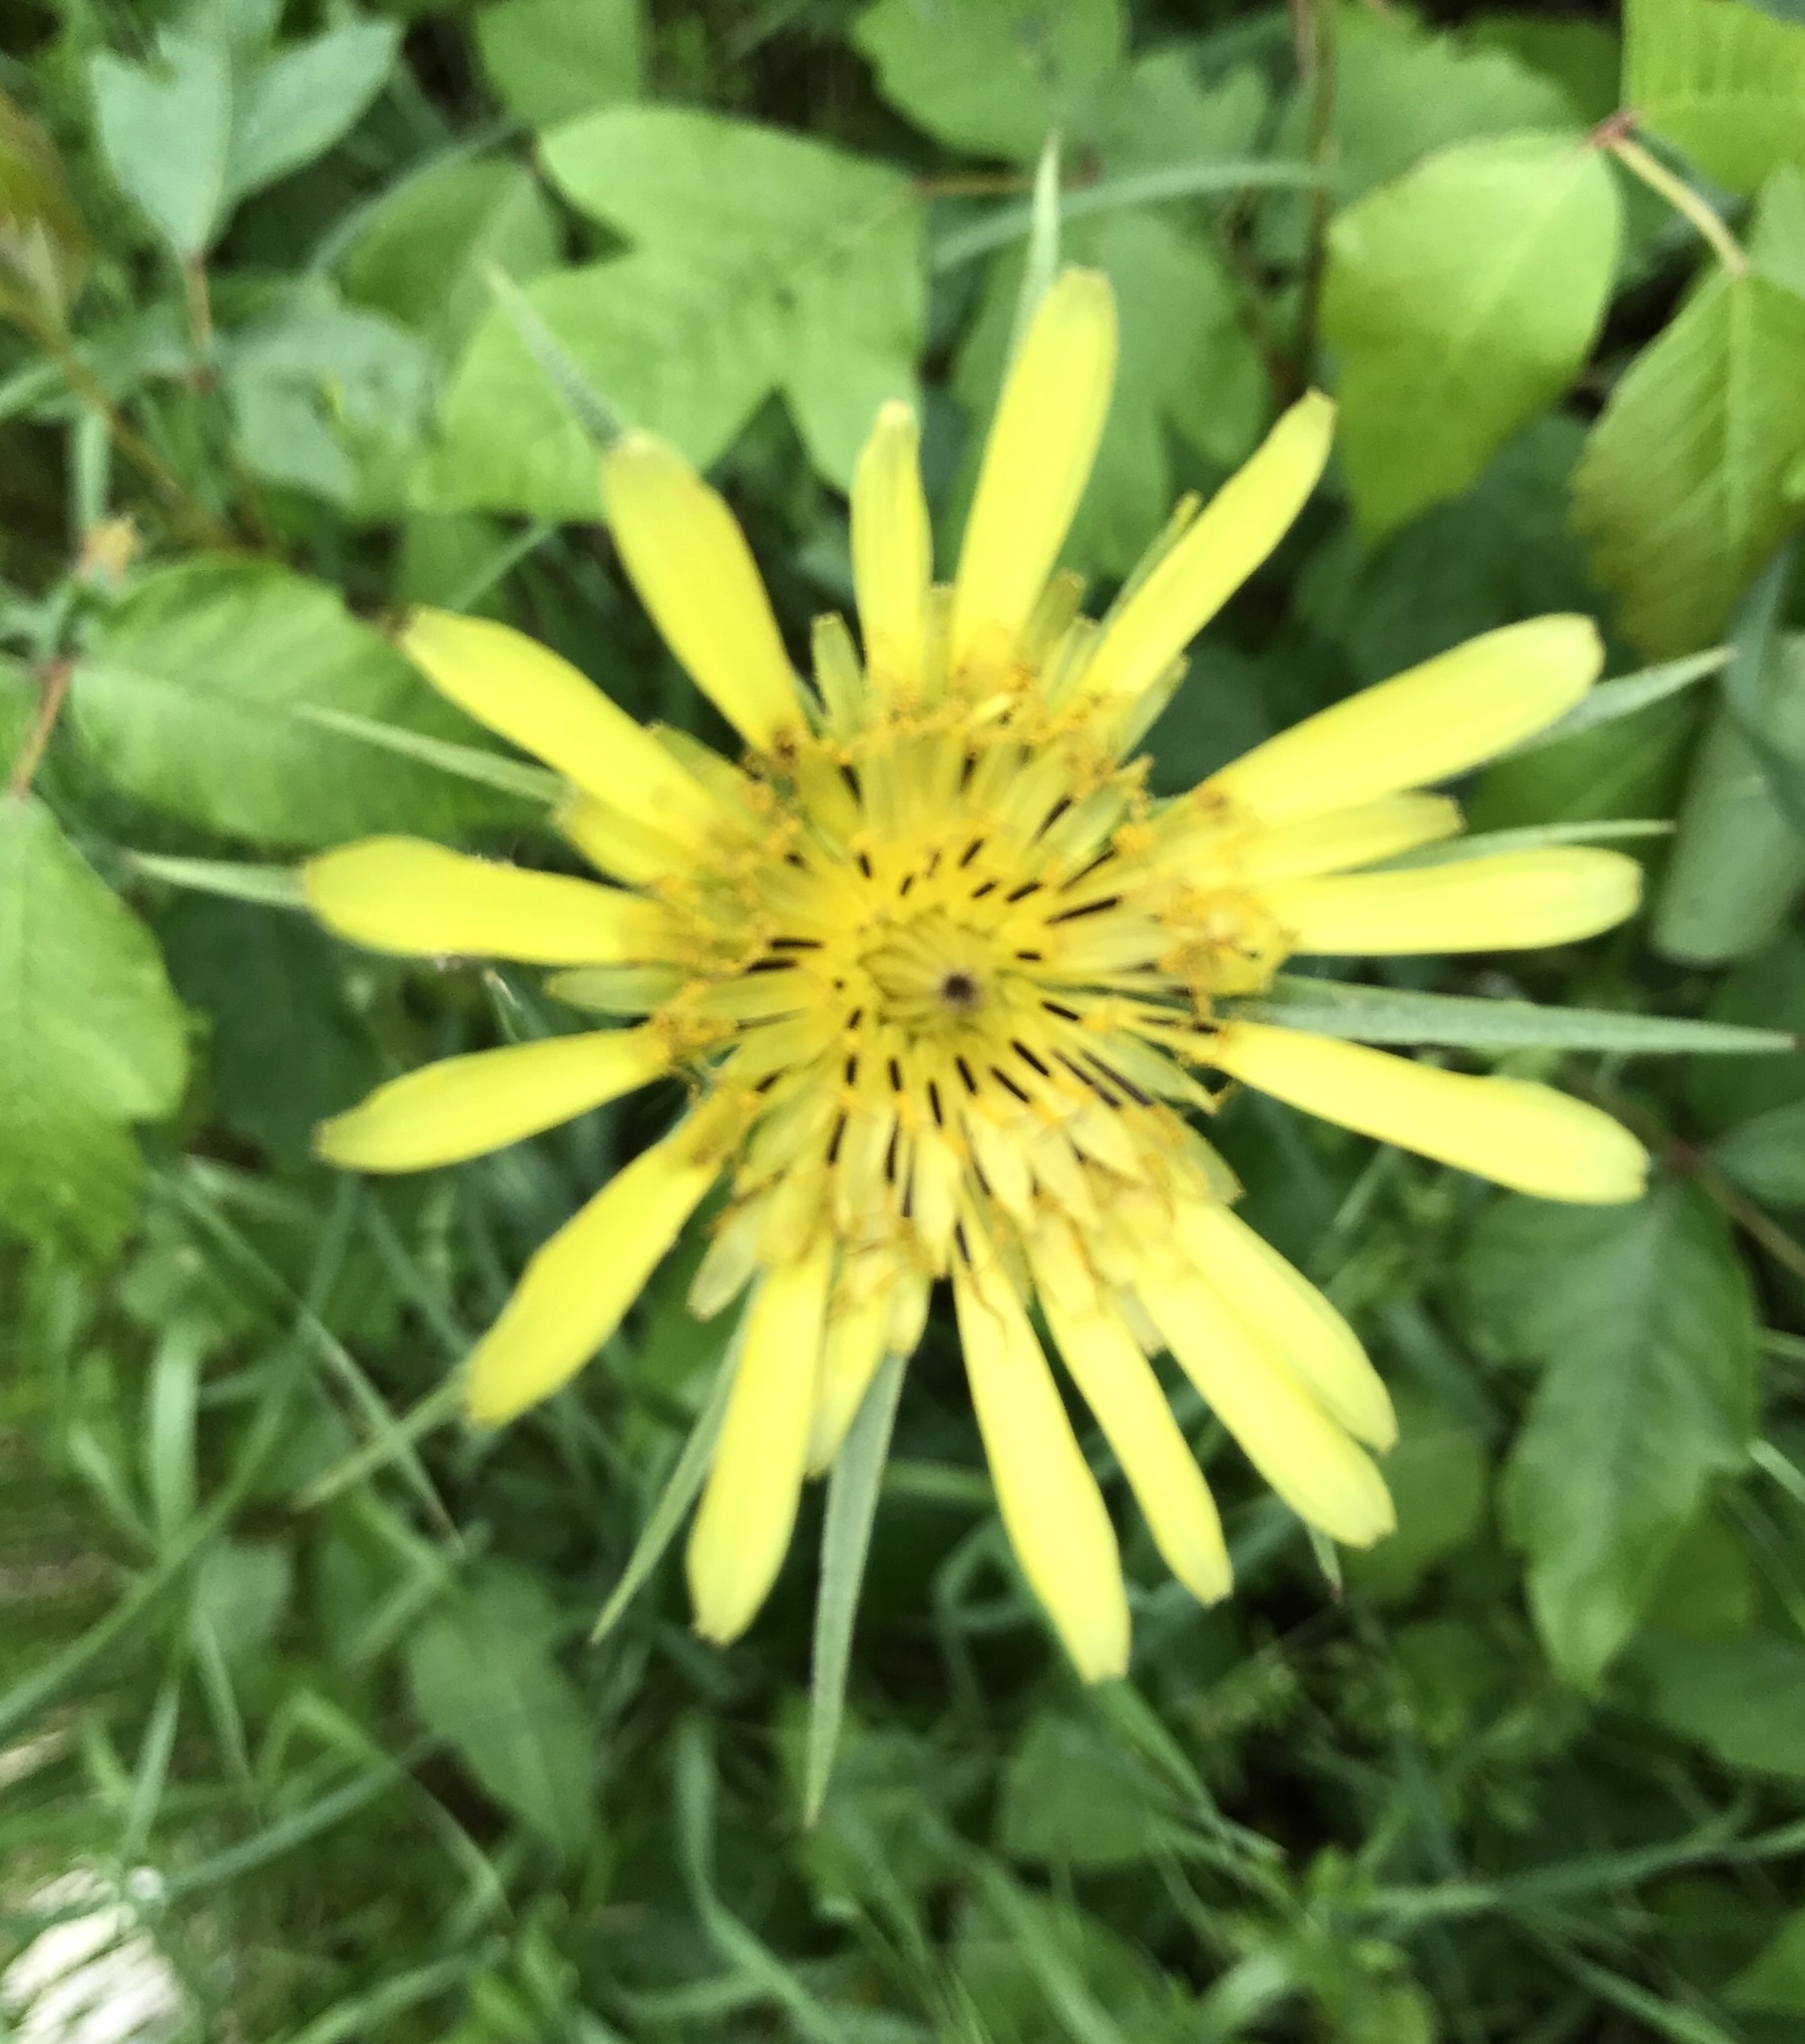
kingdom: Plantae
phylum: Tracheophyta
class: Magnoliopsida
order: Asterales
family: Asteraceae
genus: Tragopogon
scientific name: Tragopogon dubius
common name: Yellow salsify
